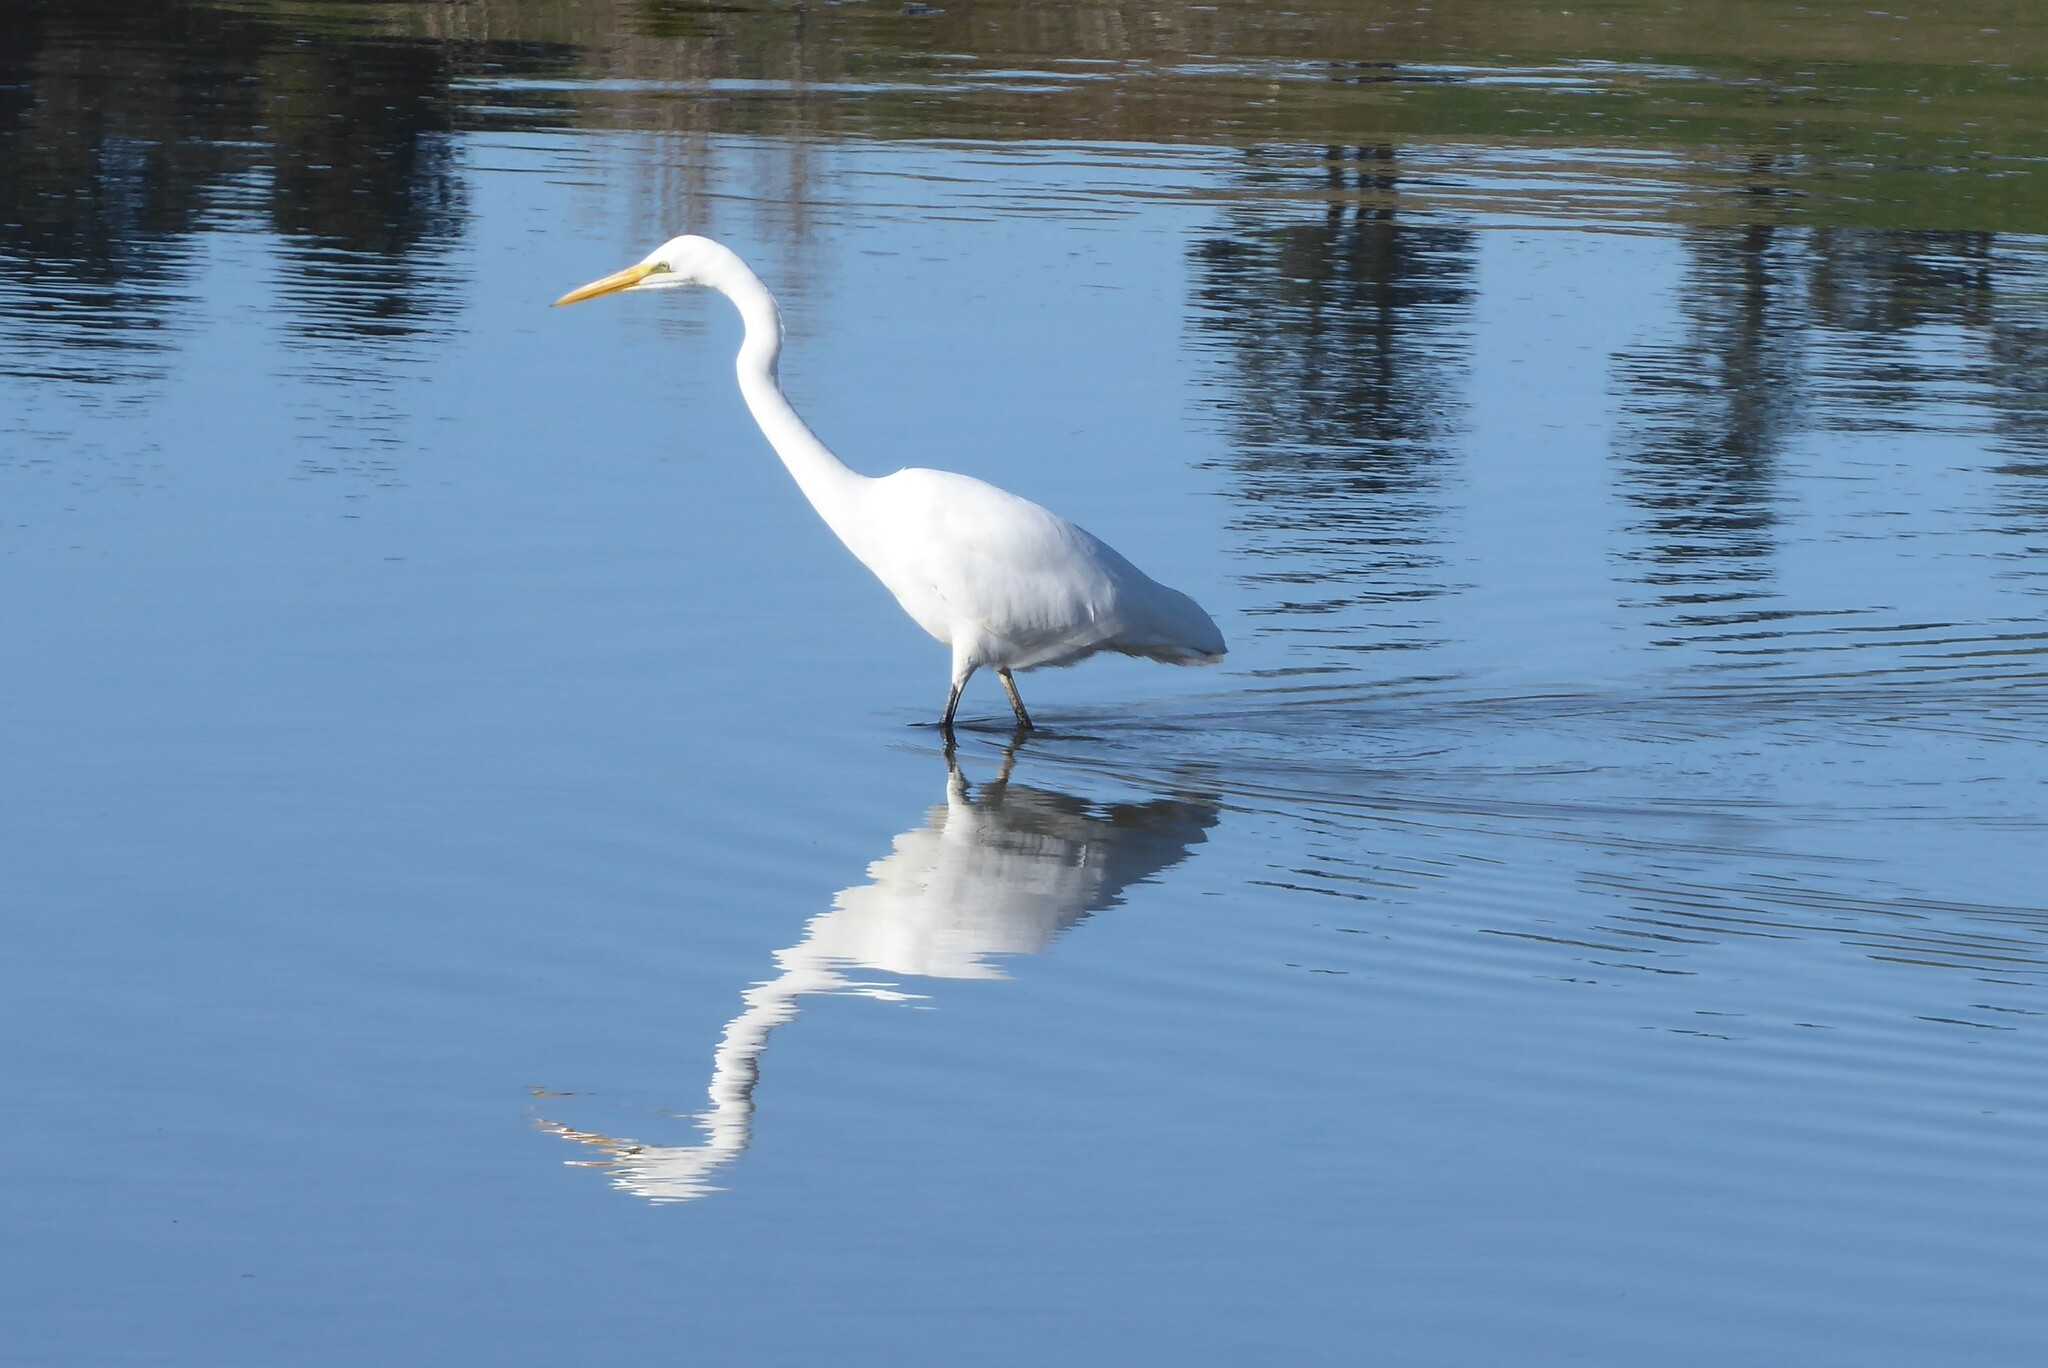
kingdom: Animalia
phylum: Chordata
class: Aves
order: Pelecaniformes
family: Ardeidae
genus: Ardea
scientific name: Ardea modesta
